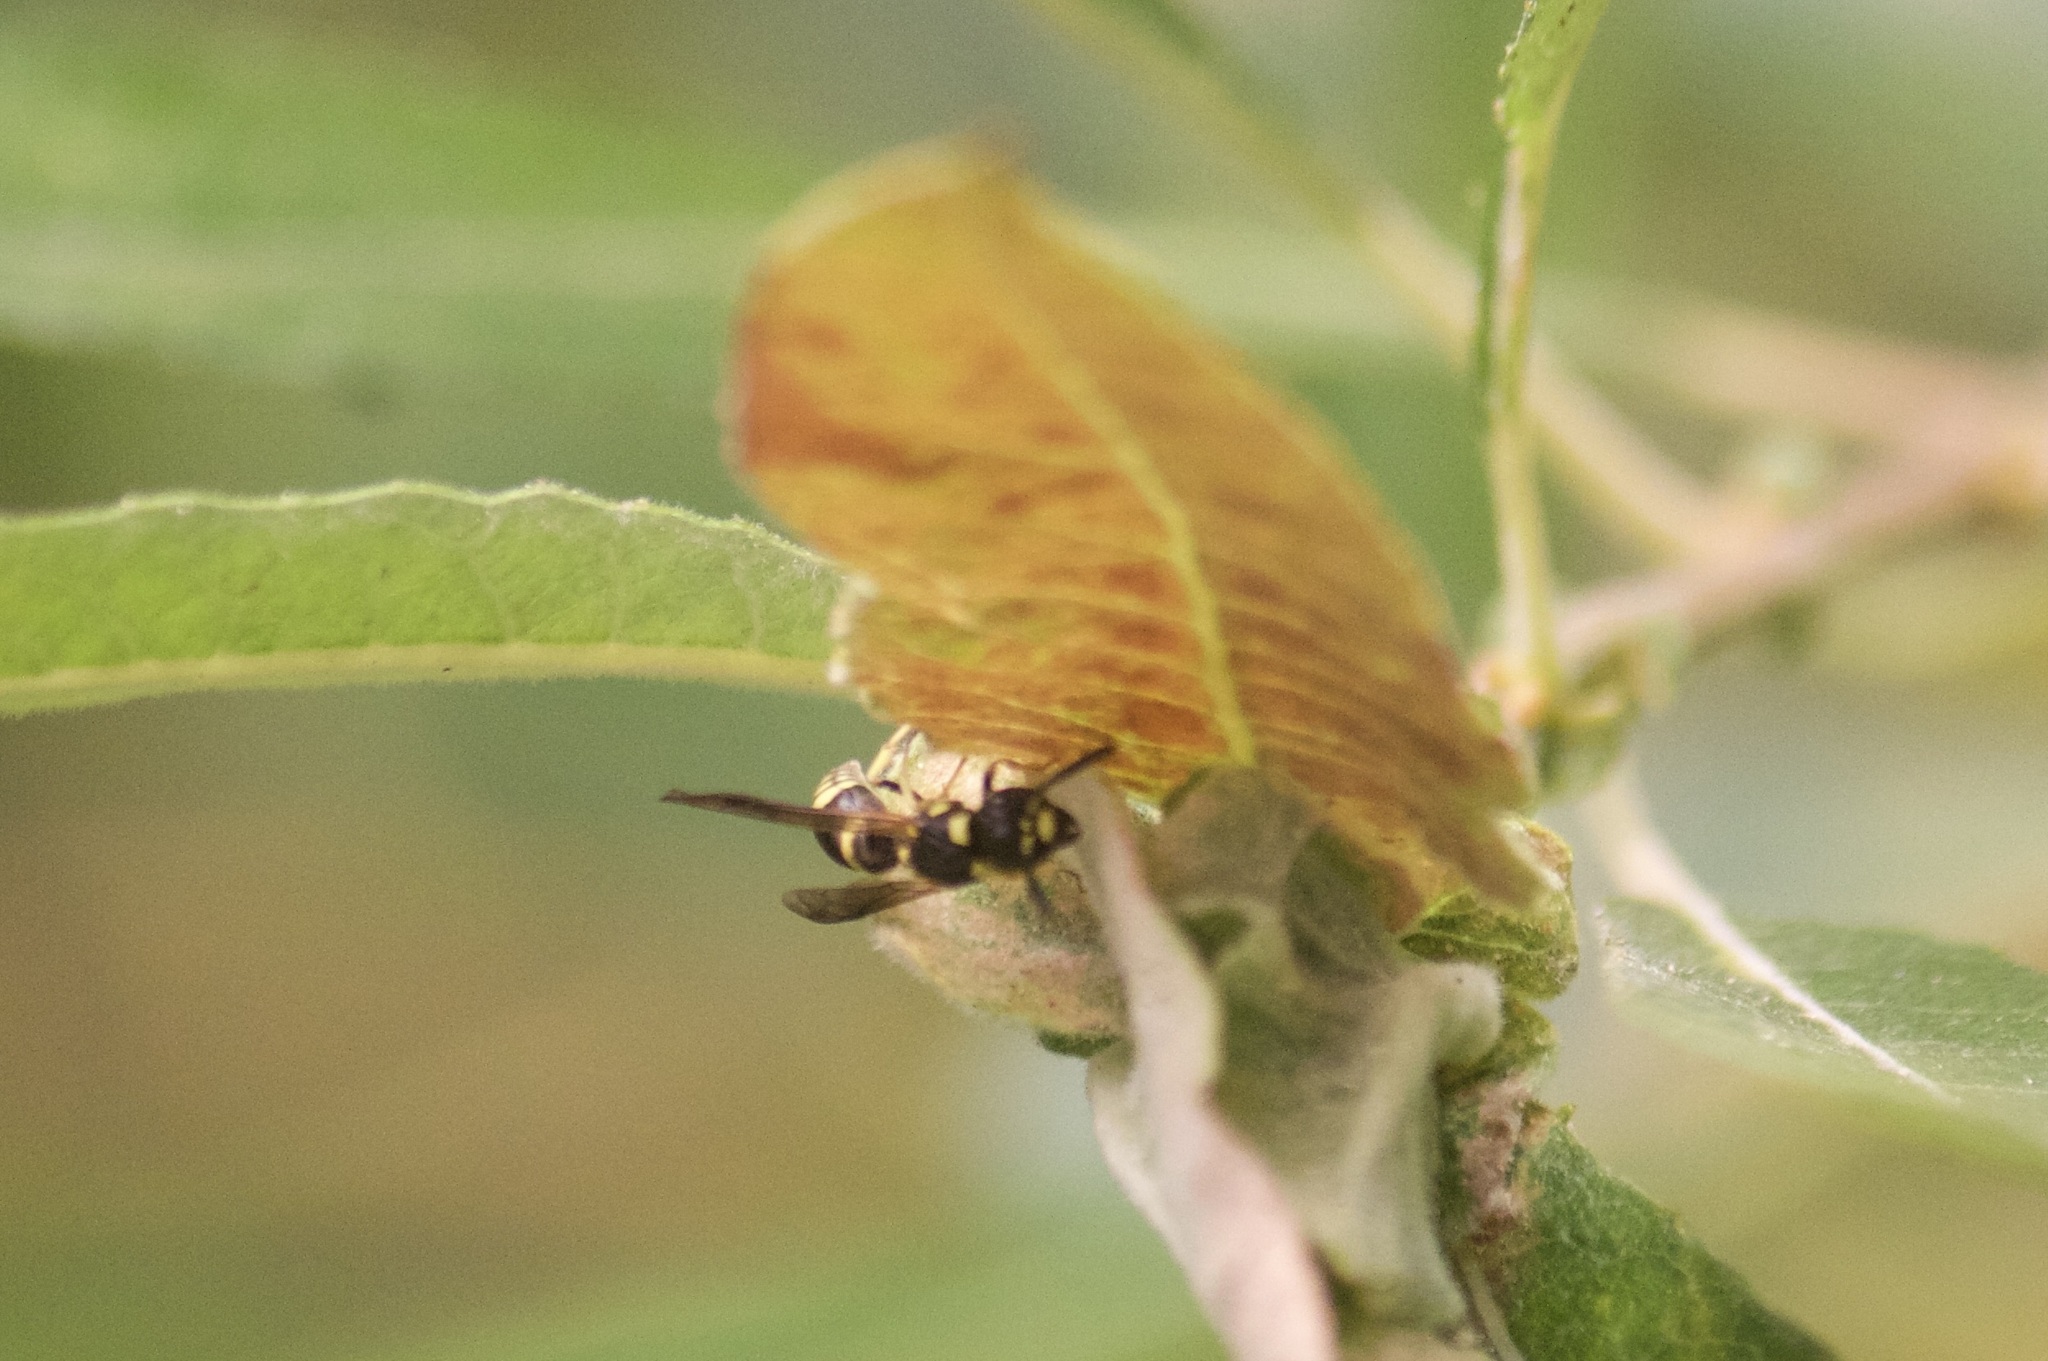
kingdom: Animalia
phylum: Arthropoda
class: Insecta
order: Hymenoptera
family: Eumenidae
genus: Symmorphus
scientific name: Symmorphus
